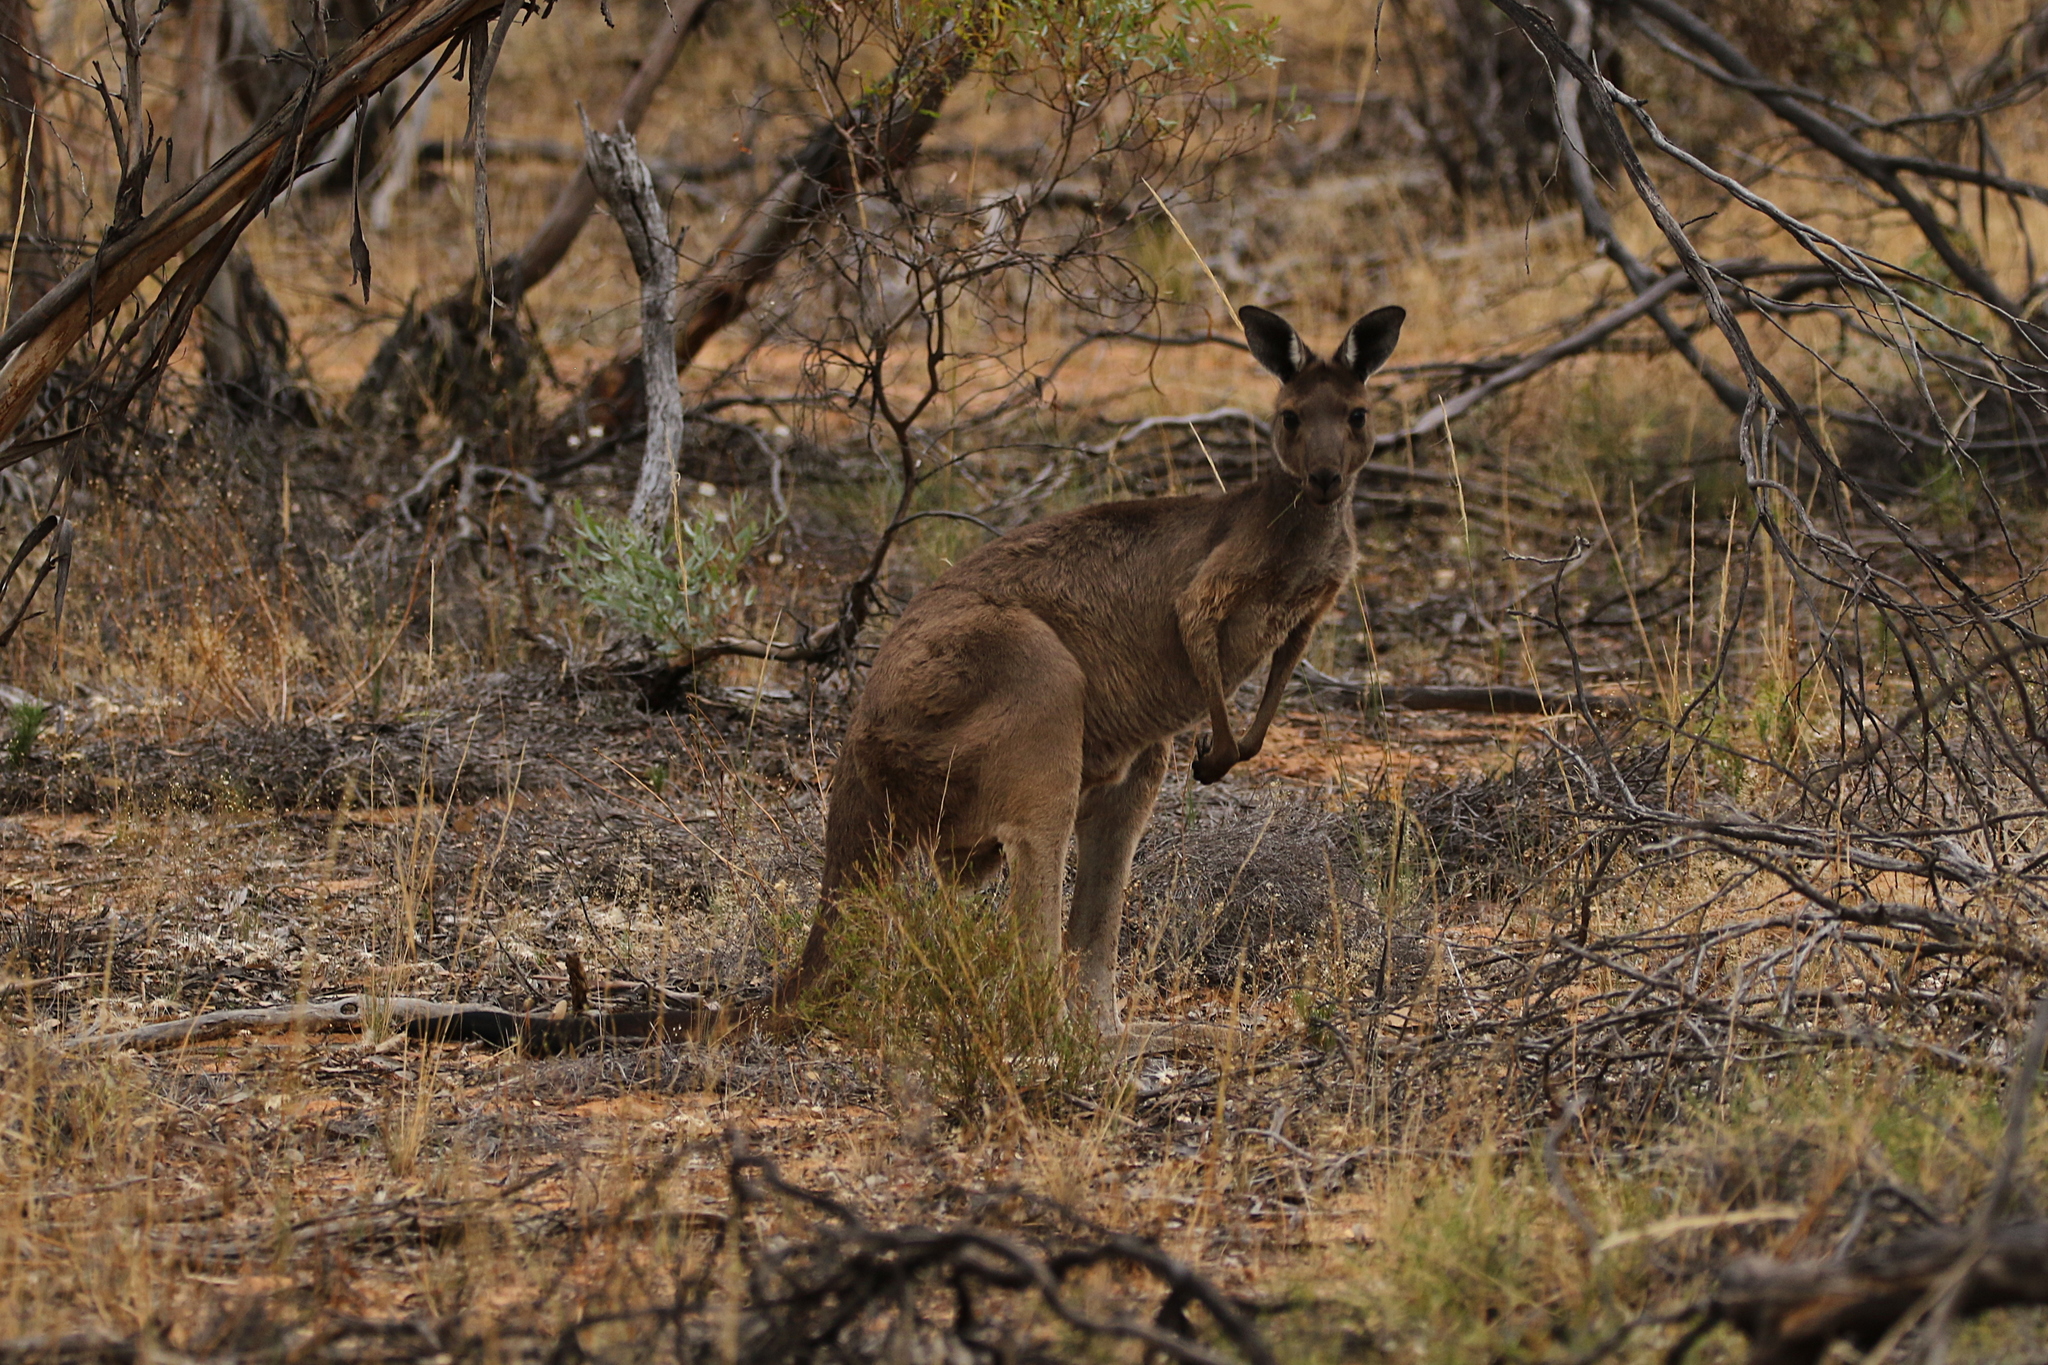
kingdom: Animalia
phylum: Chordata
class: Mammalia
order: Diprotodontia
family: Macropodidae
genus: Macropus
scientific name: Macropus fuliginosus
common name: Western grey kangaroo
